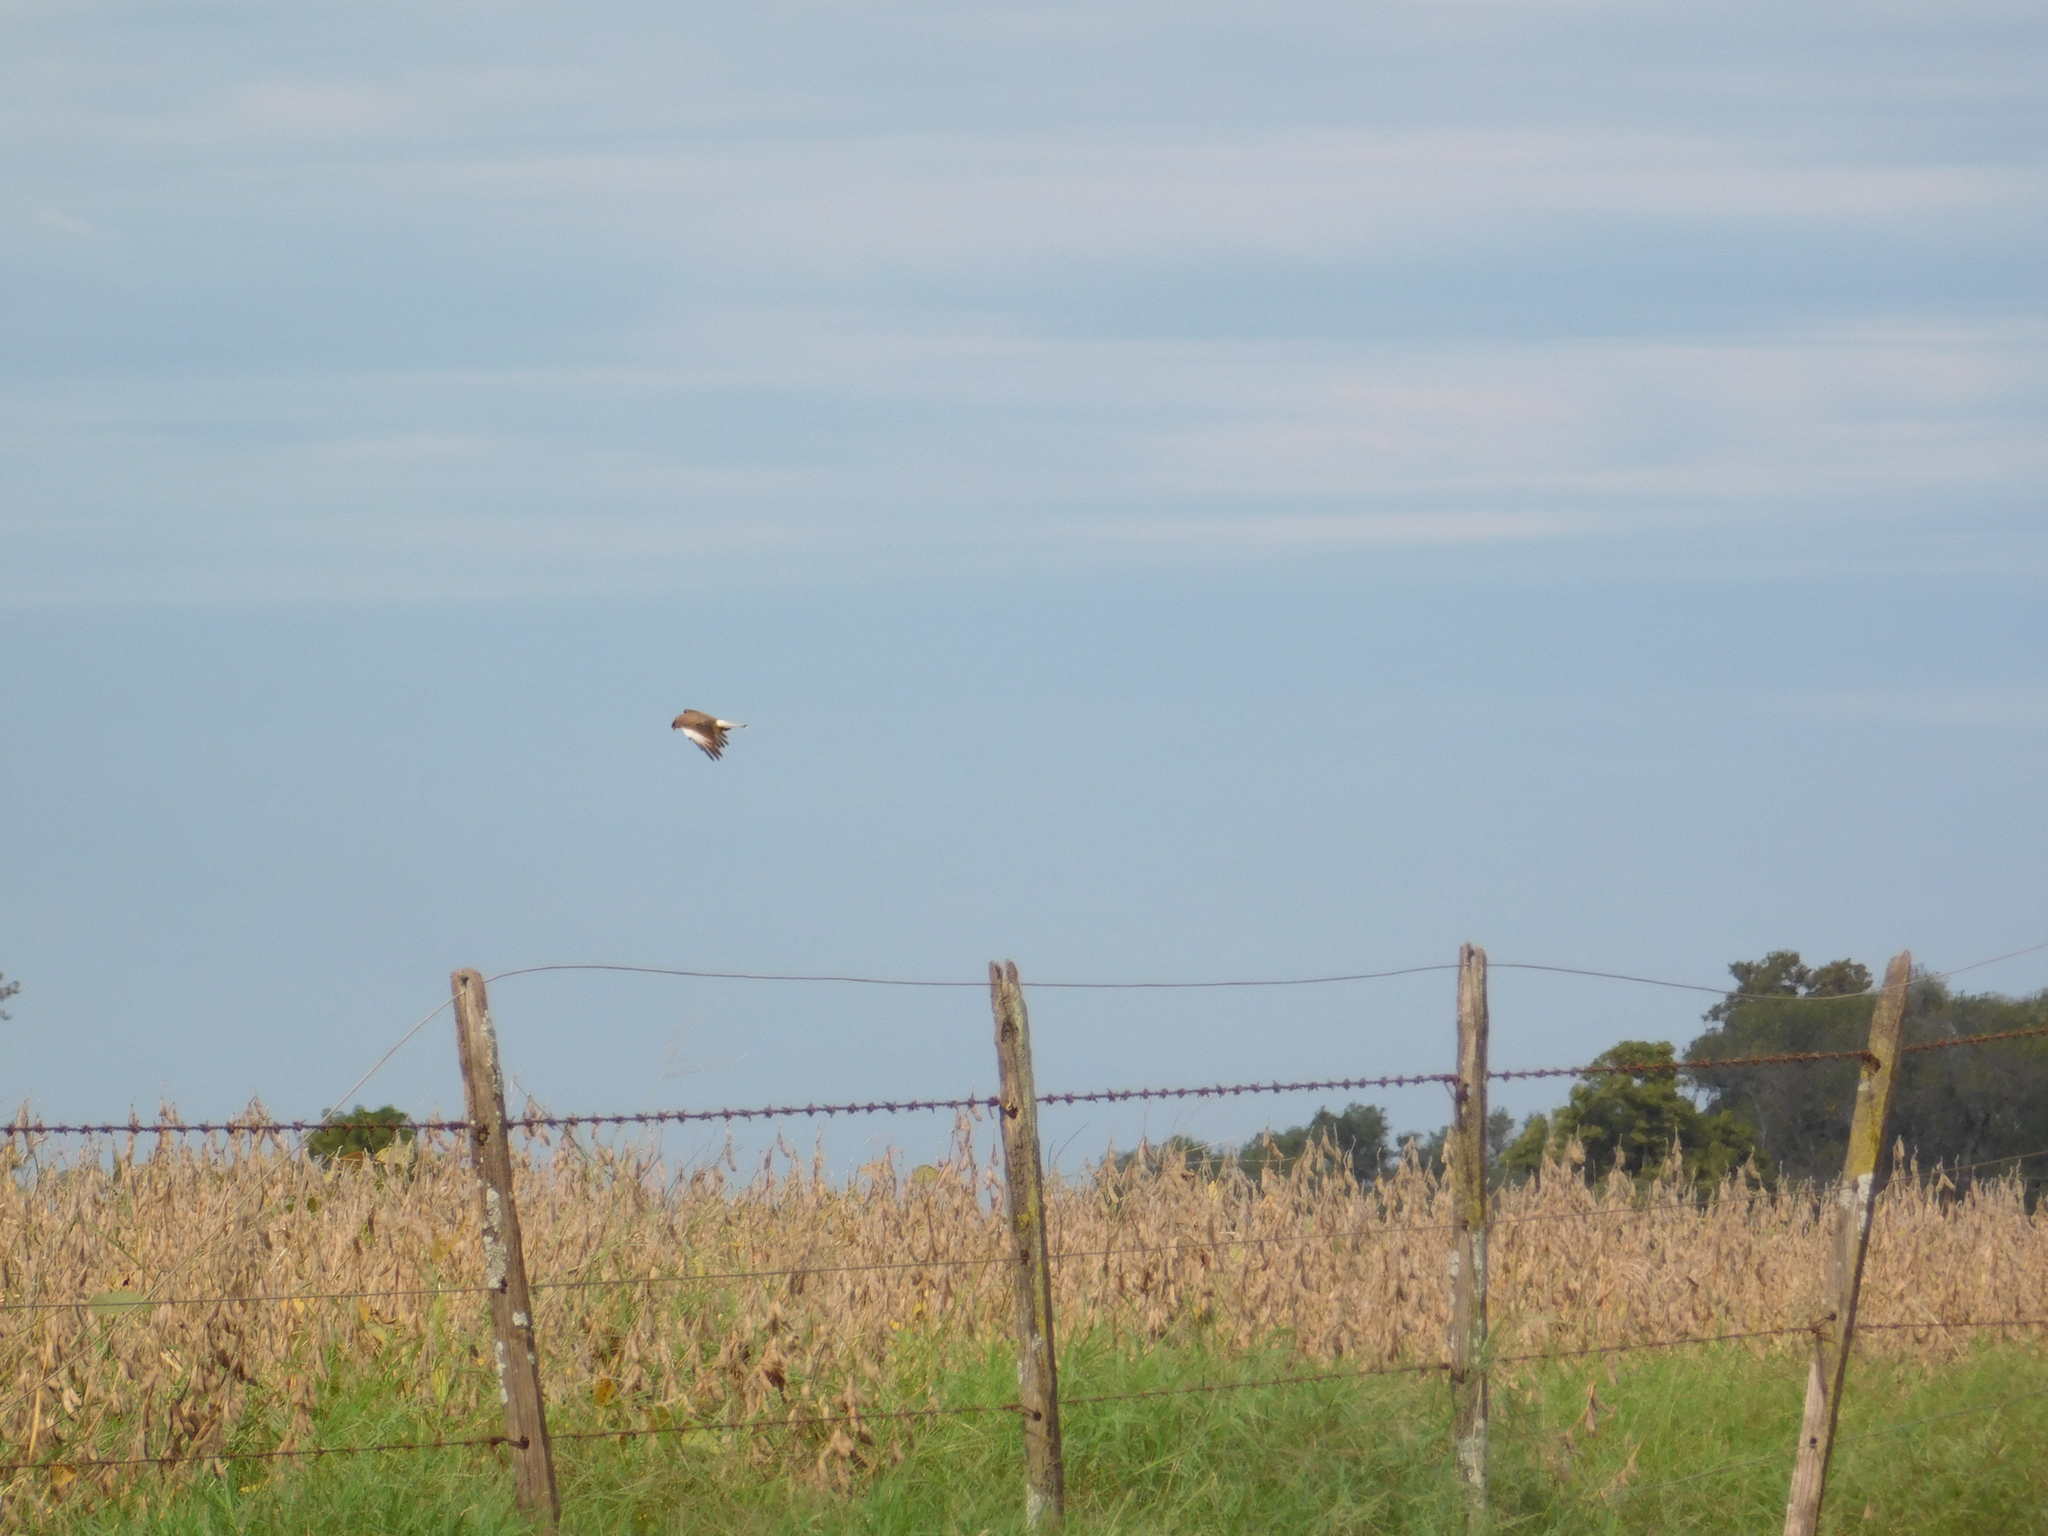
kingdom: Animalia
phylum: Chordata
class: Aves
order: Falconiformes
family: Falconidae
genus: Daptrius
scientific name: Daptrius
